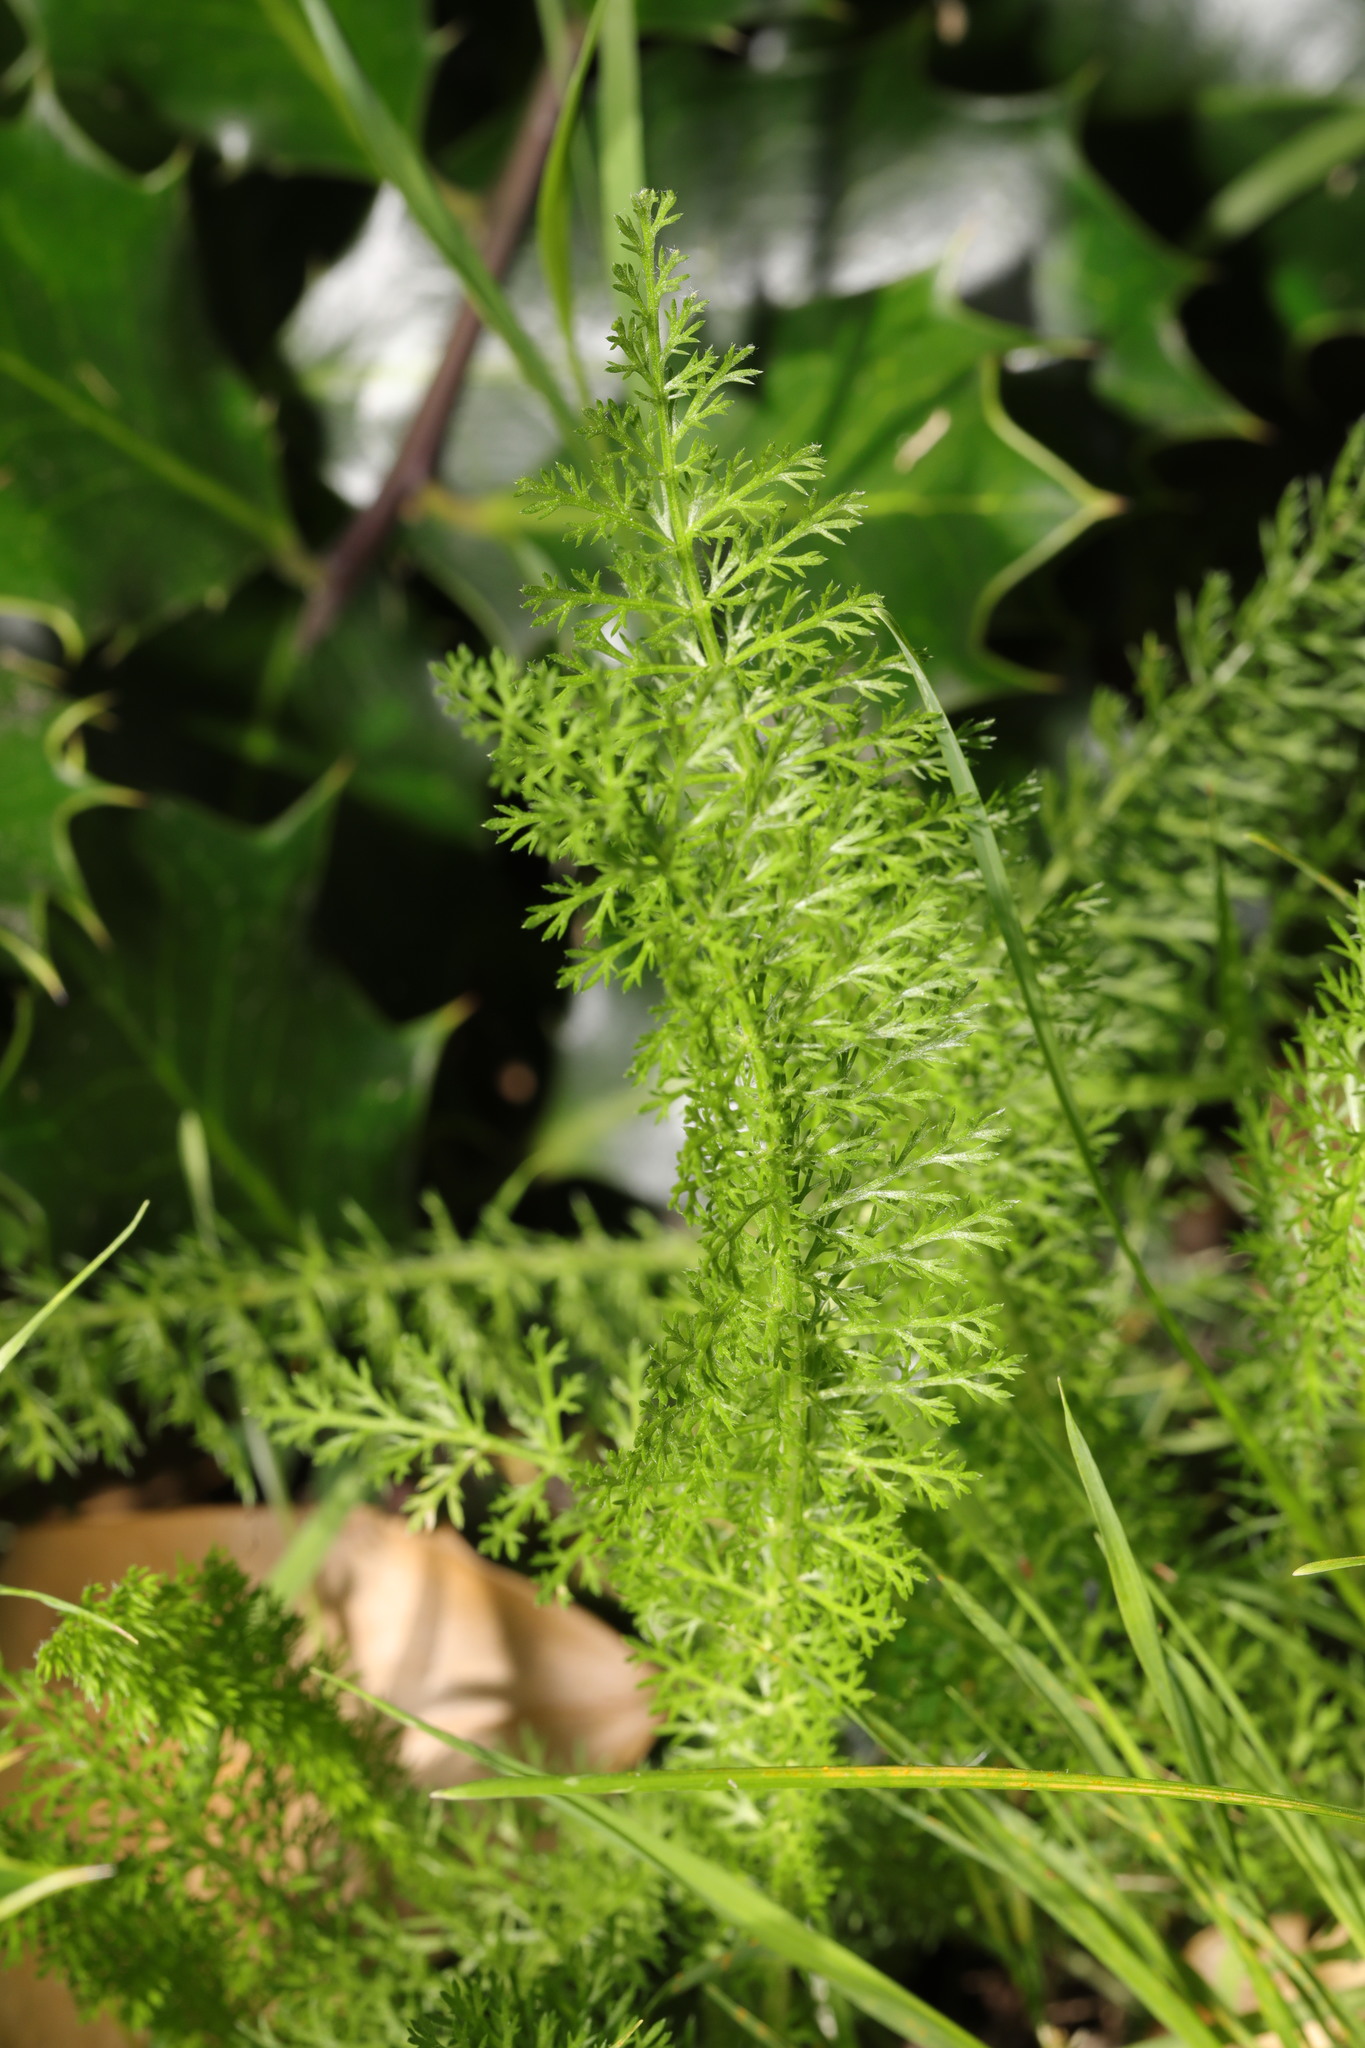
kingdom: Plantae
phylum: Tracheophyta
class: Magnoliopsida
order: Asterales
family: Asteraceae
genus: Achillea
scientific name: Achillea millefolium
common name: Yarrow
